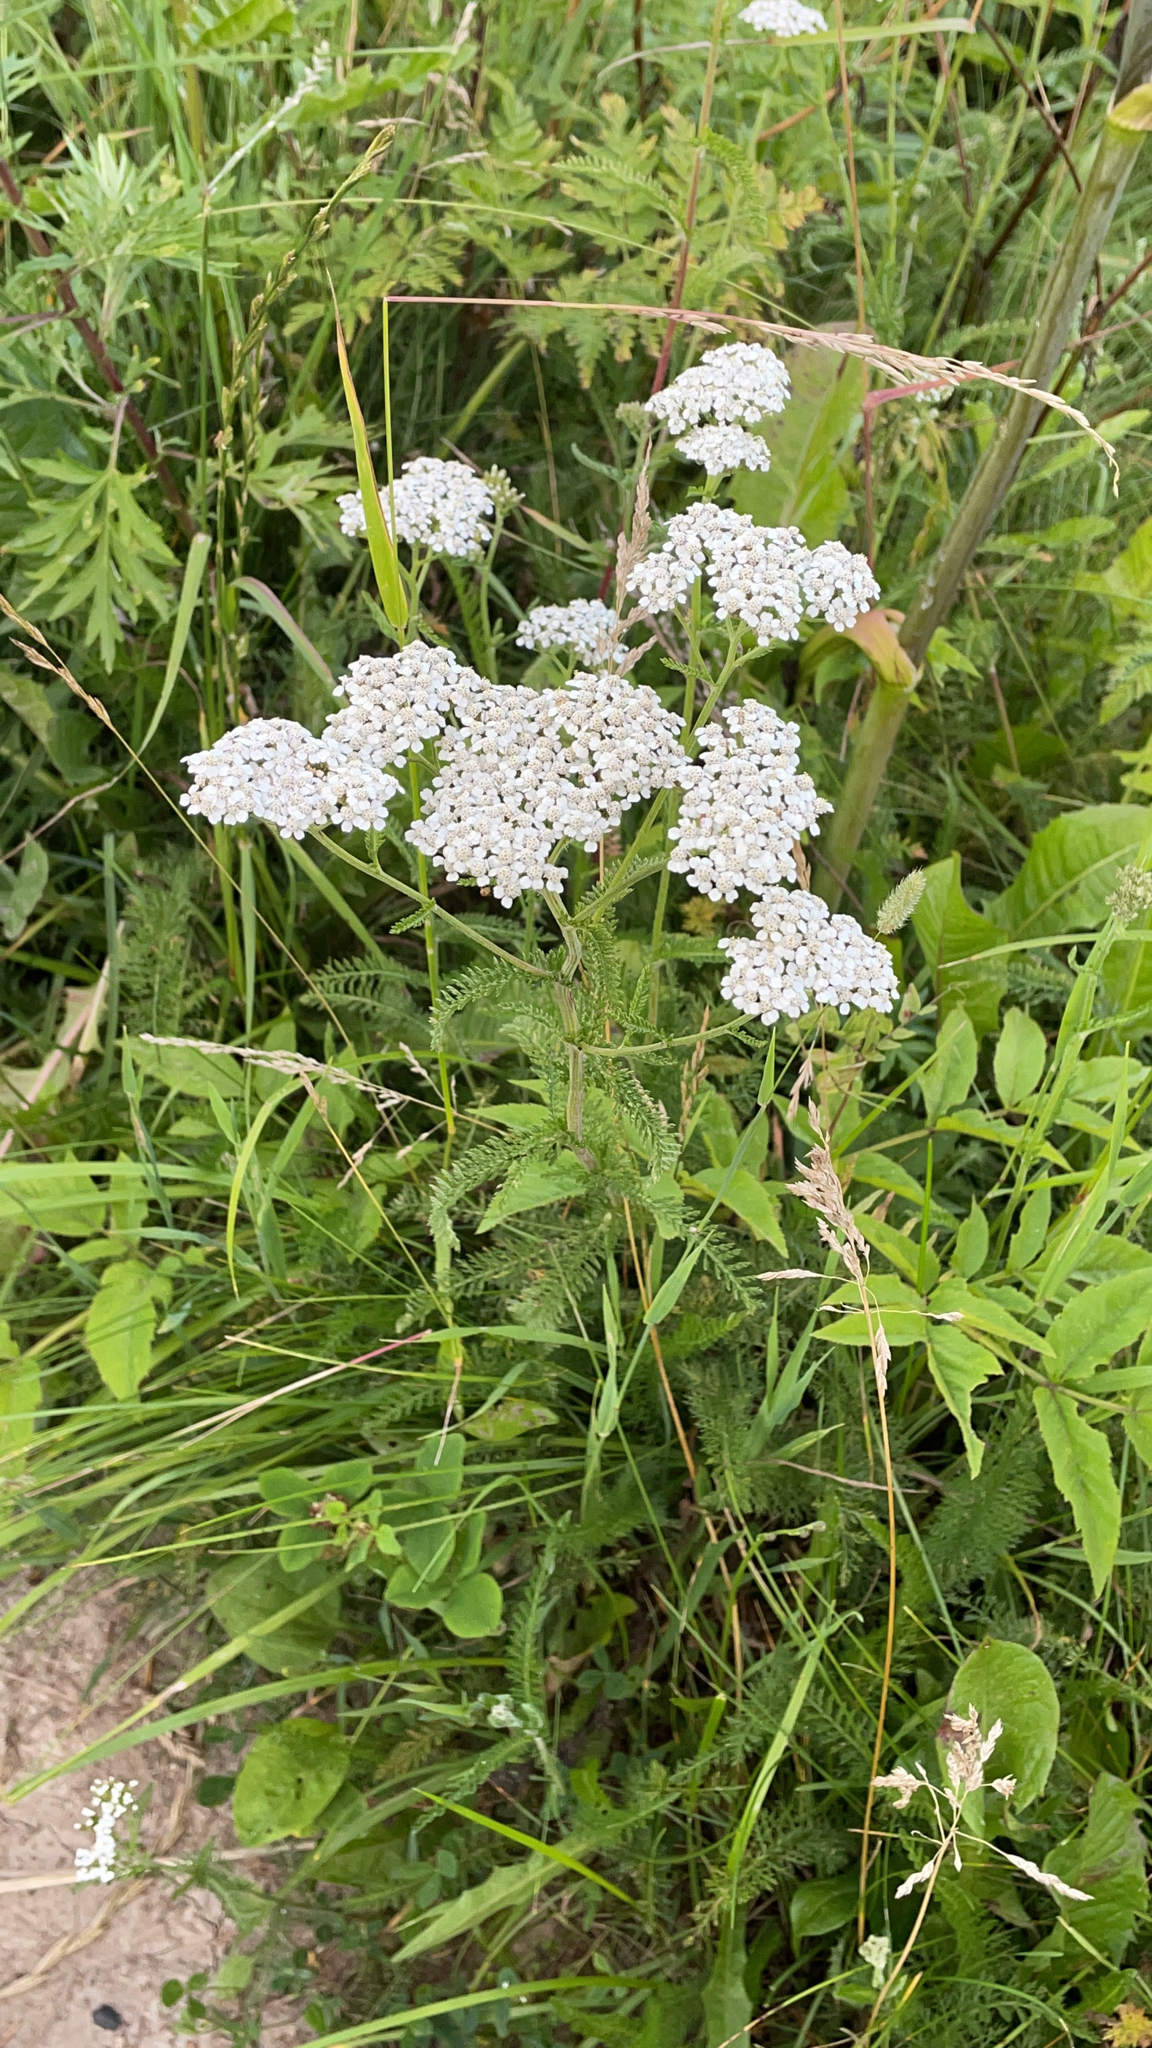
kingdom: Plantae
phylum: Tracheophyta
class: Magnoliopsida
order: Asterales
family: Asteraceae
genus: Achillea
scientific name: Achillea millefolium
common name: Yarrow
